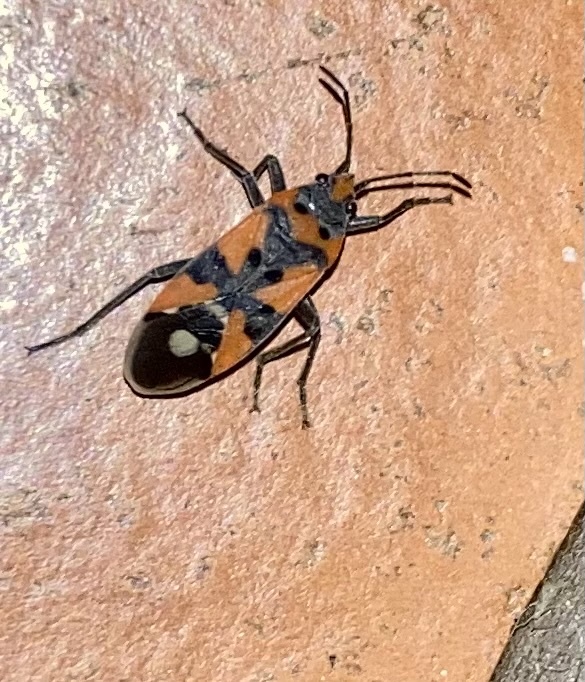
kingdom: Animalia
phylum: Arthropoda
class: Insecta
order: Hemiptera
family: Lygaeidae
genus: Lygaeus
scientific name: Lygaeus
